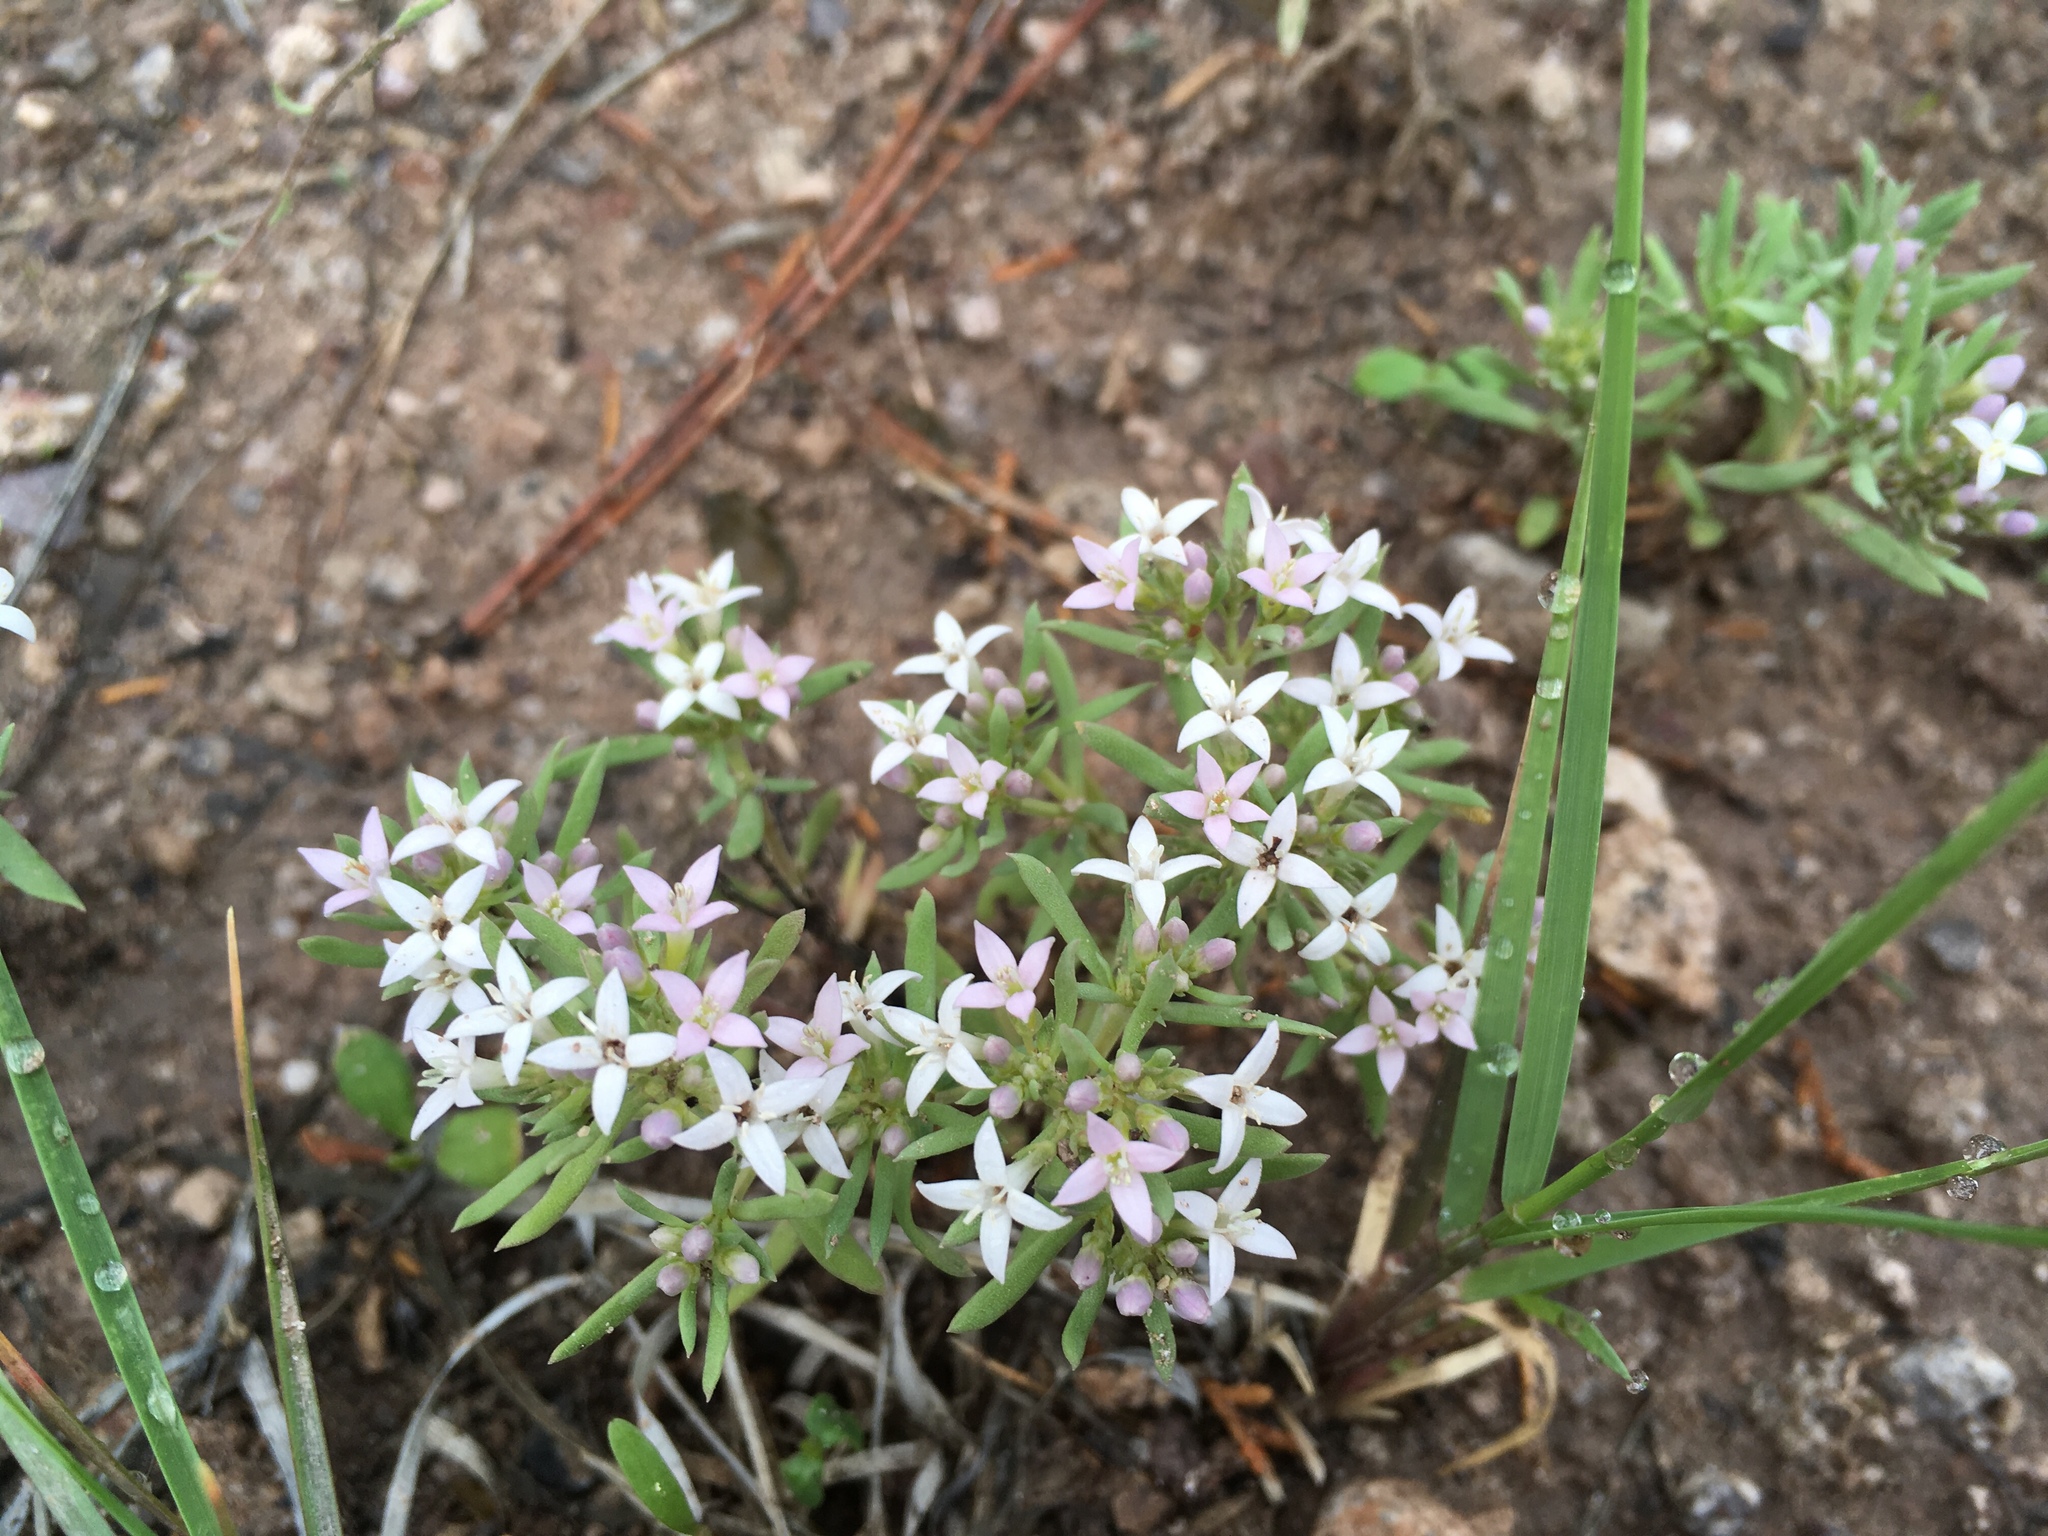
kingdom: Plantae
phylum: Tracheophyta
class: Magnoliopsida
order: Gentianales
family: Rubiaceae
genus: Houstonia
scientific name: Houstonia wrightii
